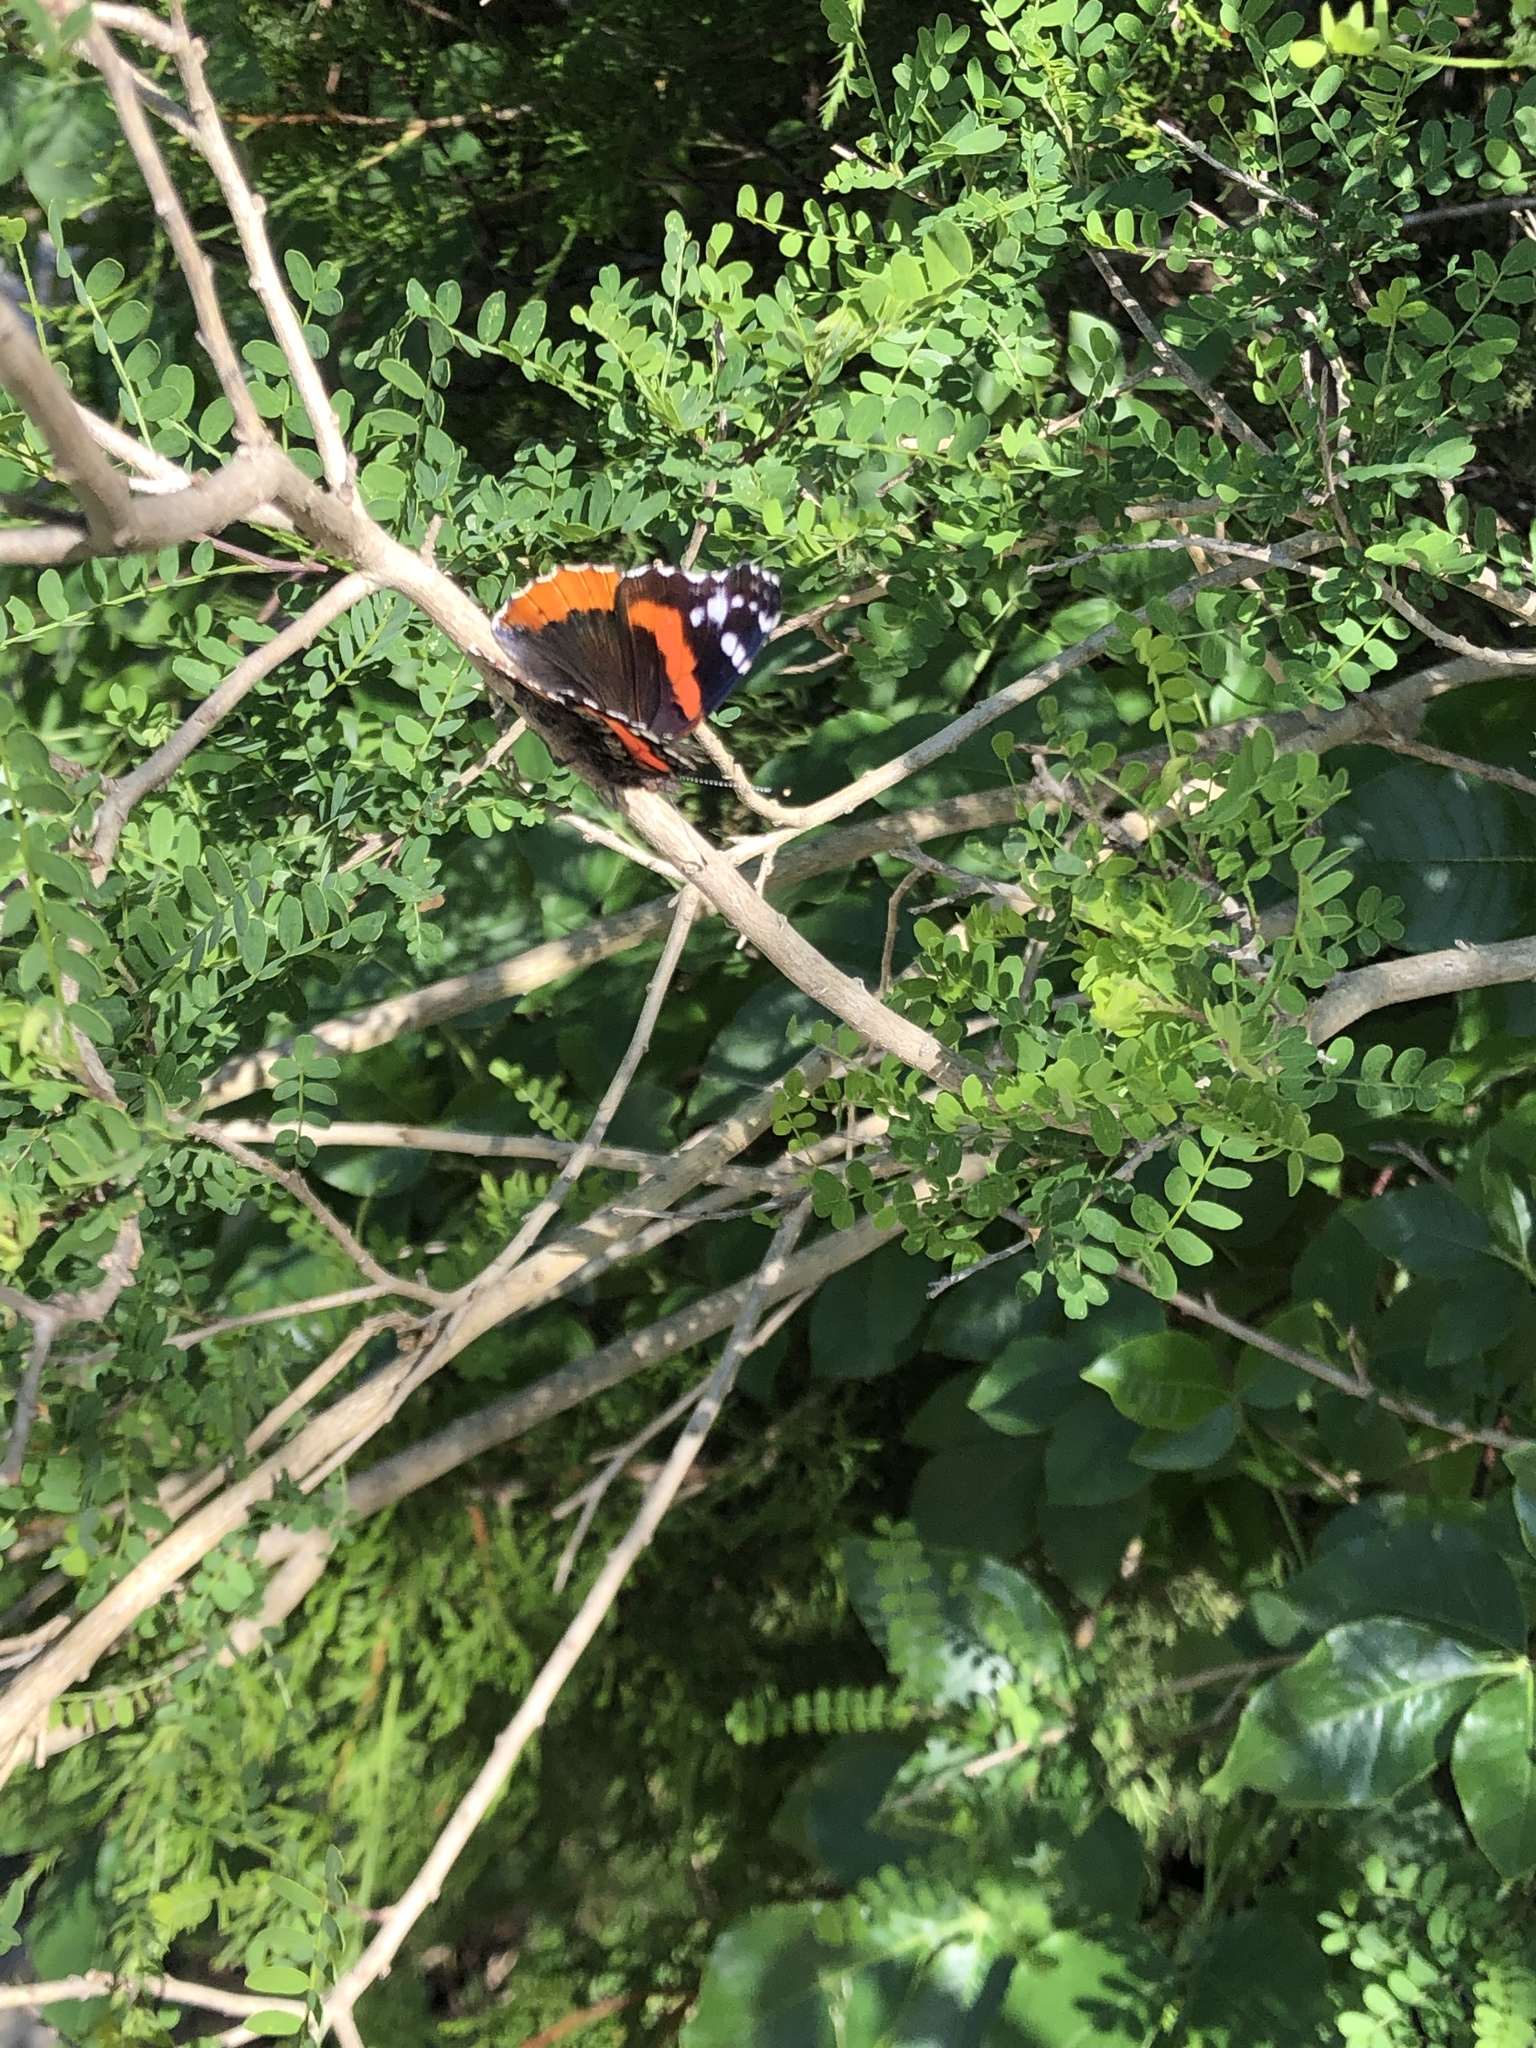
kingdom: Animalia
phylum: Arthropoda
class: Insecta
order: Lepidoptera
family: Nymphalidae
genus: Vanessa
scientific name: Vanessa atalanta
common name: Red admiral
